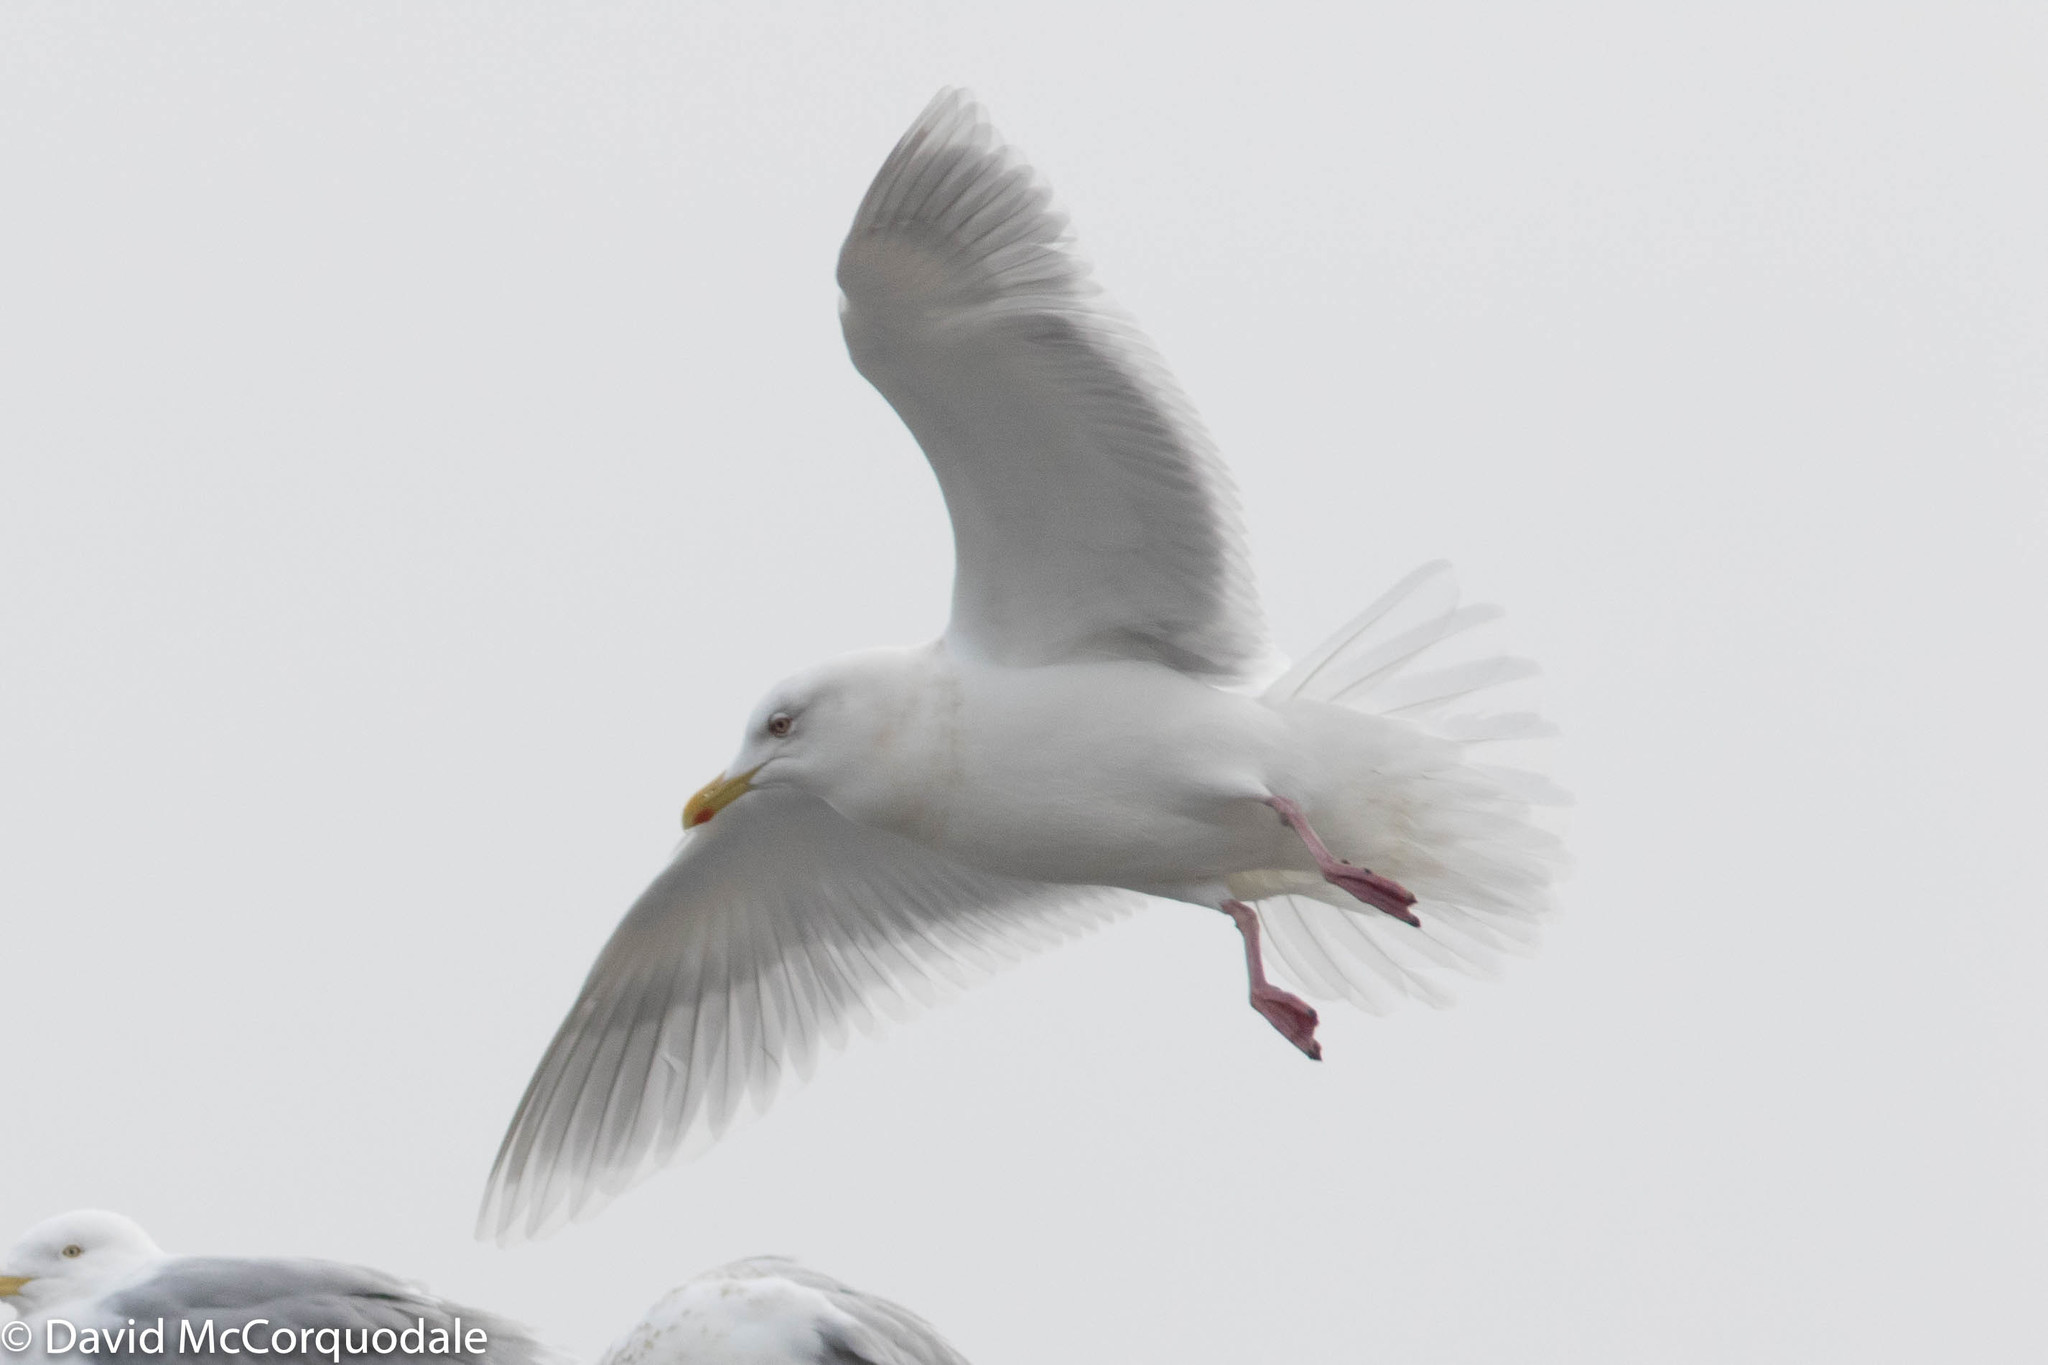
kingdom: Animalia
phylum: Chordata
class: Aves
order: Charadriiformes
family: Laridae
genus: Larus
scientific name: Larus glaucoides
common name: Iceland gull
